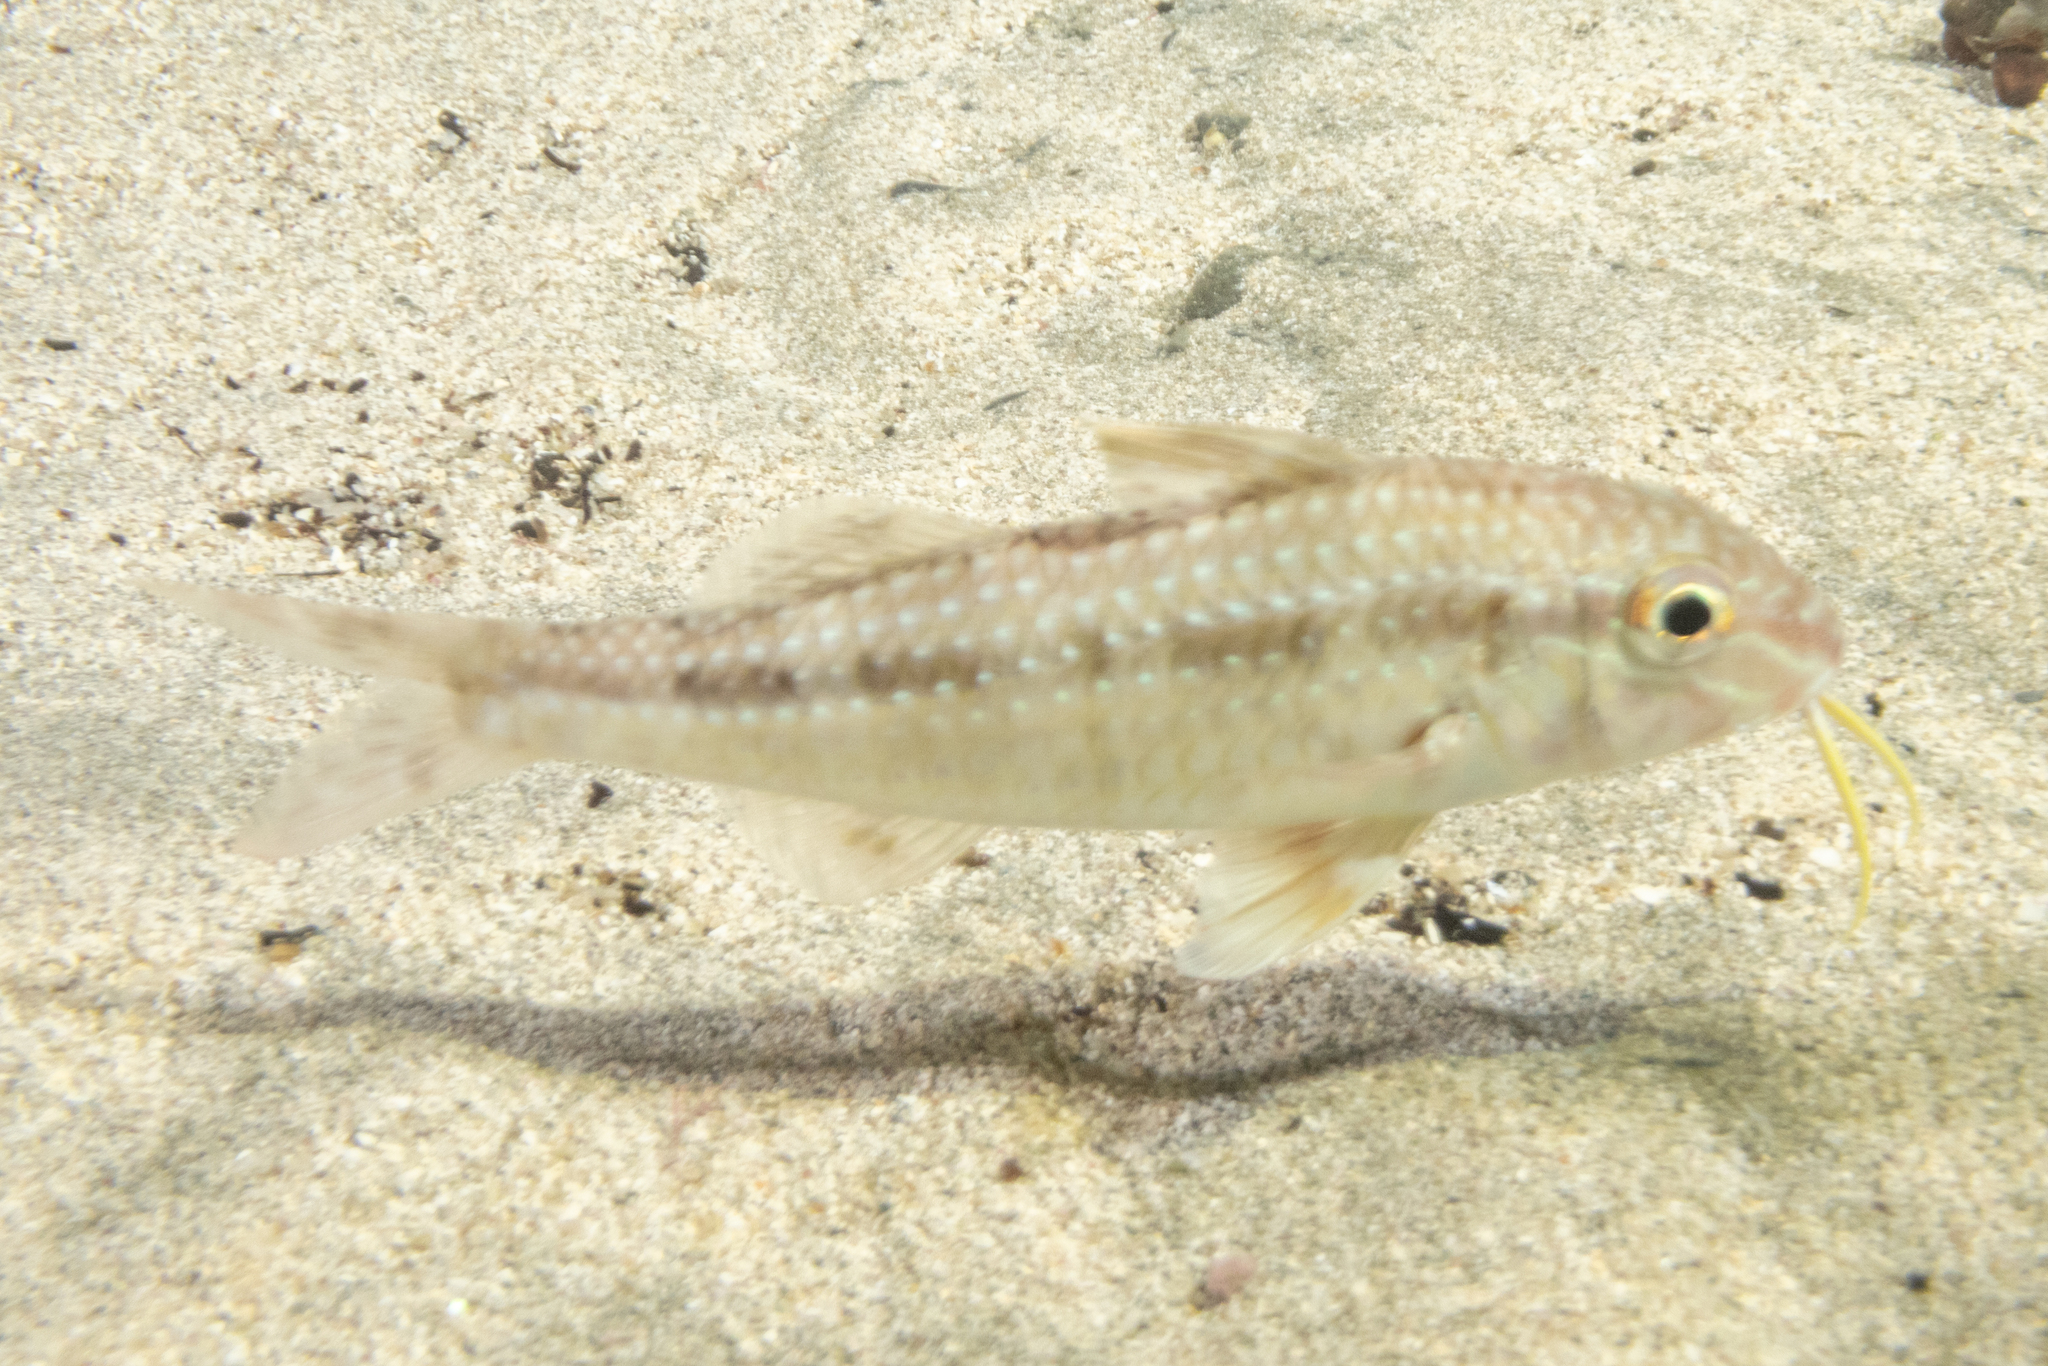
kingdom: Animalia
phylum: Chordata
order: Perciformes
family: Mullidae
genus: Upeneichthys
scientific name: Upeneichthys lineatus
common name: Red mullet
